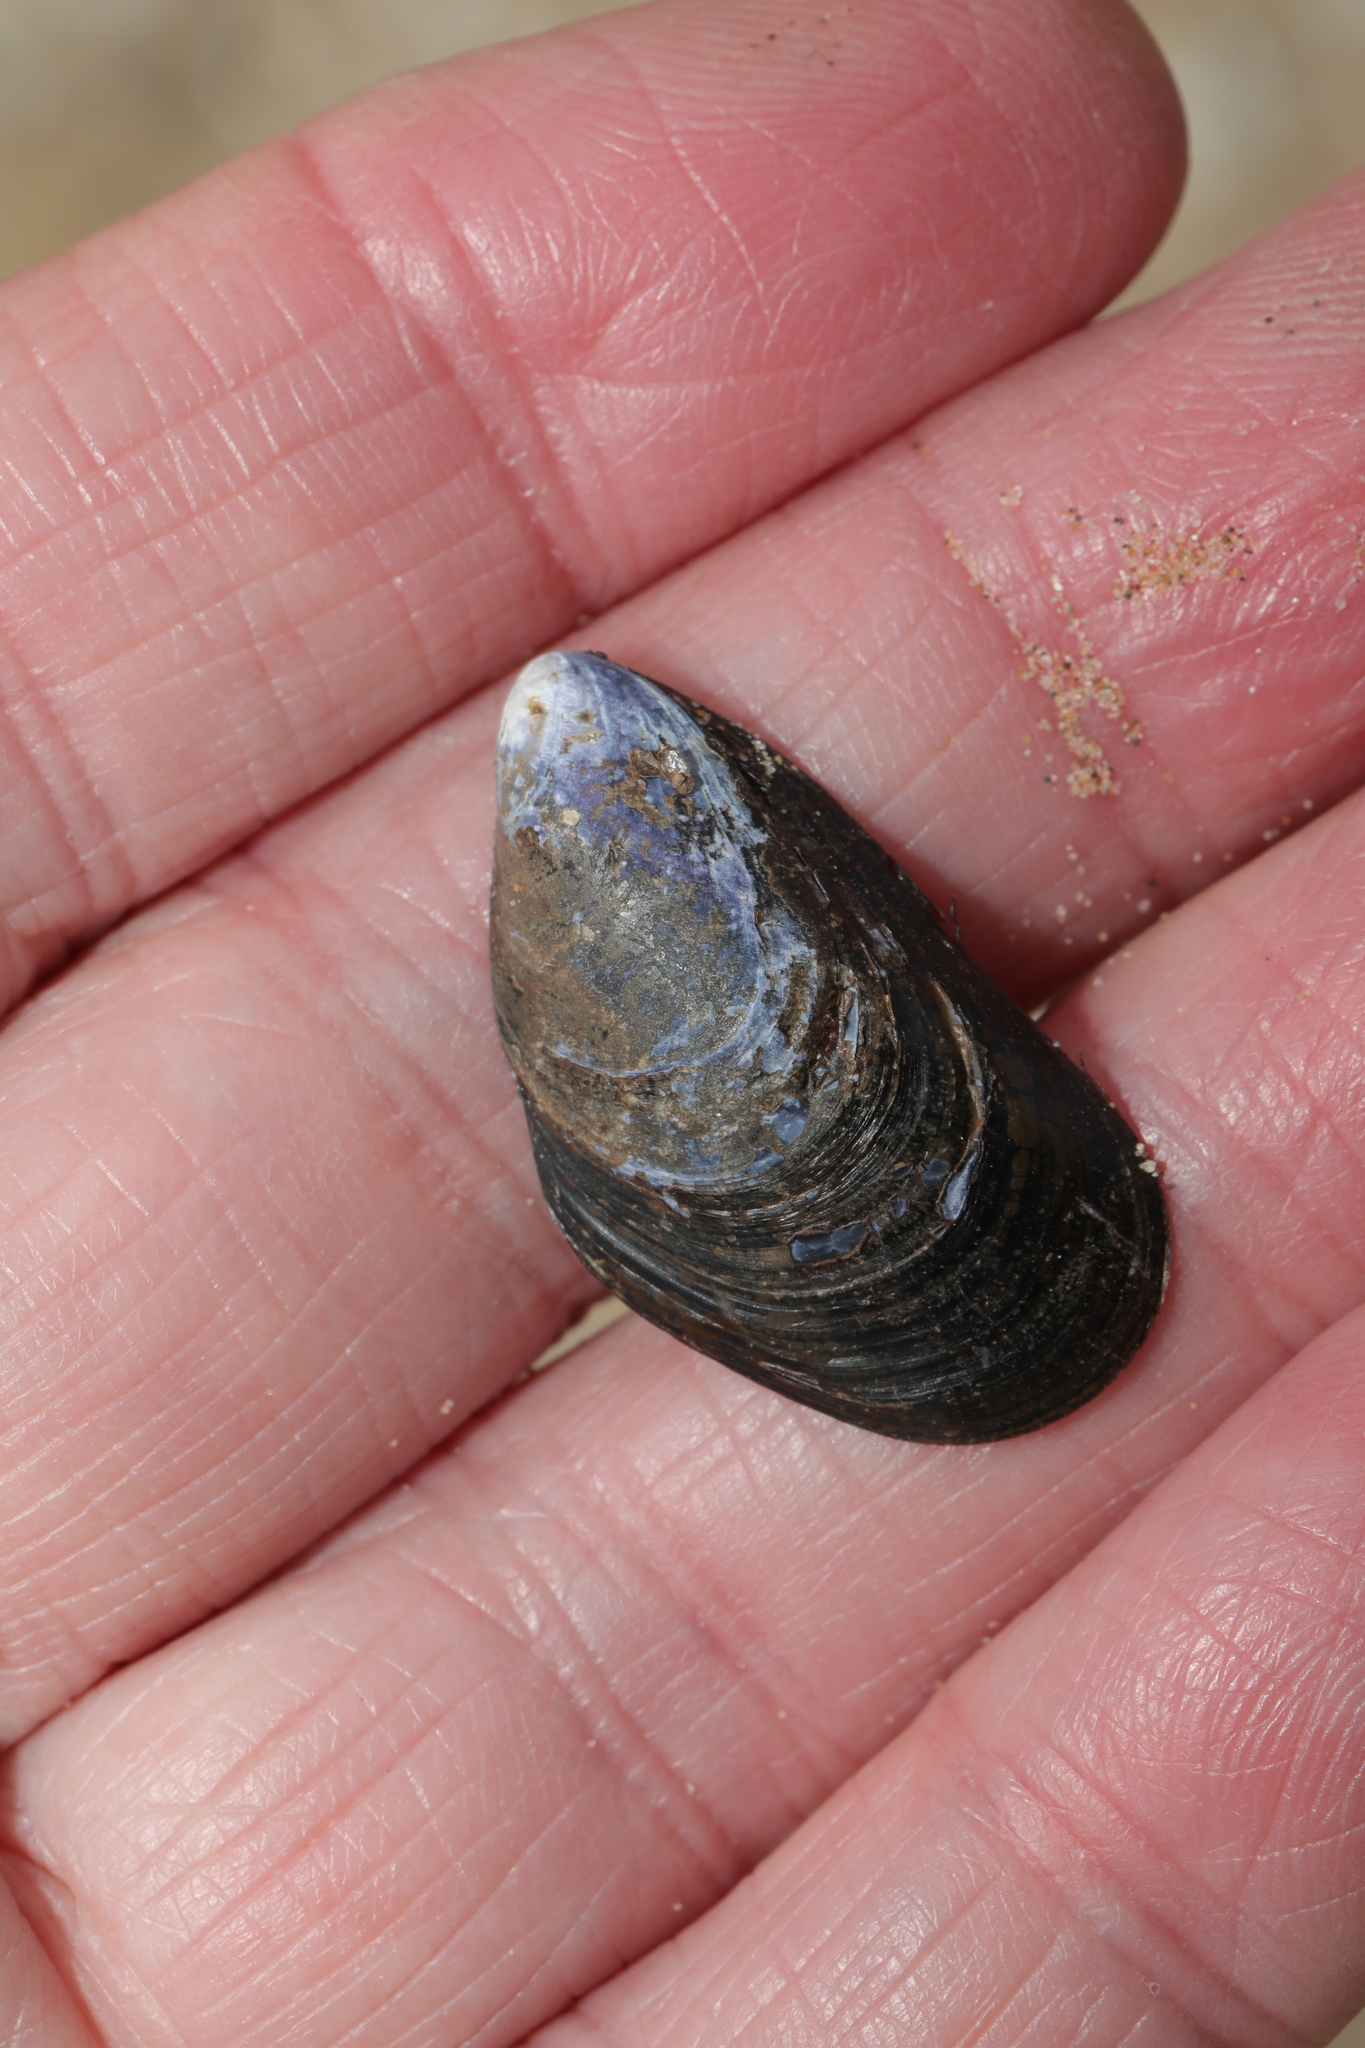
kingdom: Animalia
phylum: Mollusca
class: Bivalvia
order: Mytilida
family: Mytilidae
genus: Mytilus
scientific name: Mytilus edulis
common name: Blue mussel
